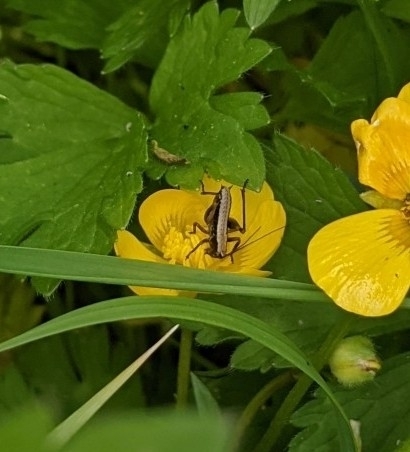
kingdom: Animalia
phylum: Arthropoda
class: Insecta
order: Orthoptera
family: Tettigoniidae
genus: Pholidoptera
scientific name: Pholidoptera griseoaptera
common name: Dark bush-cricket
